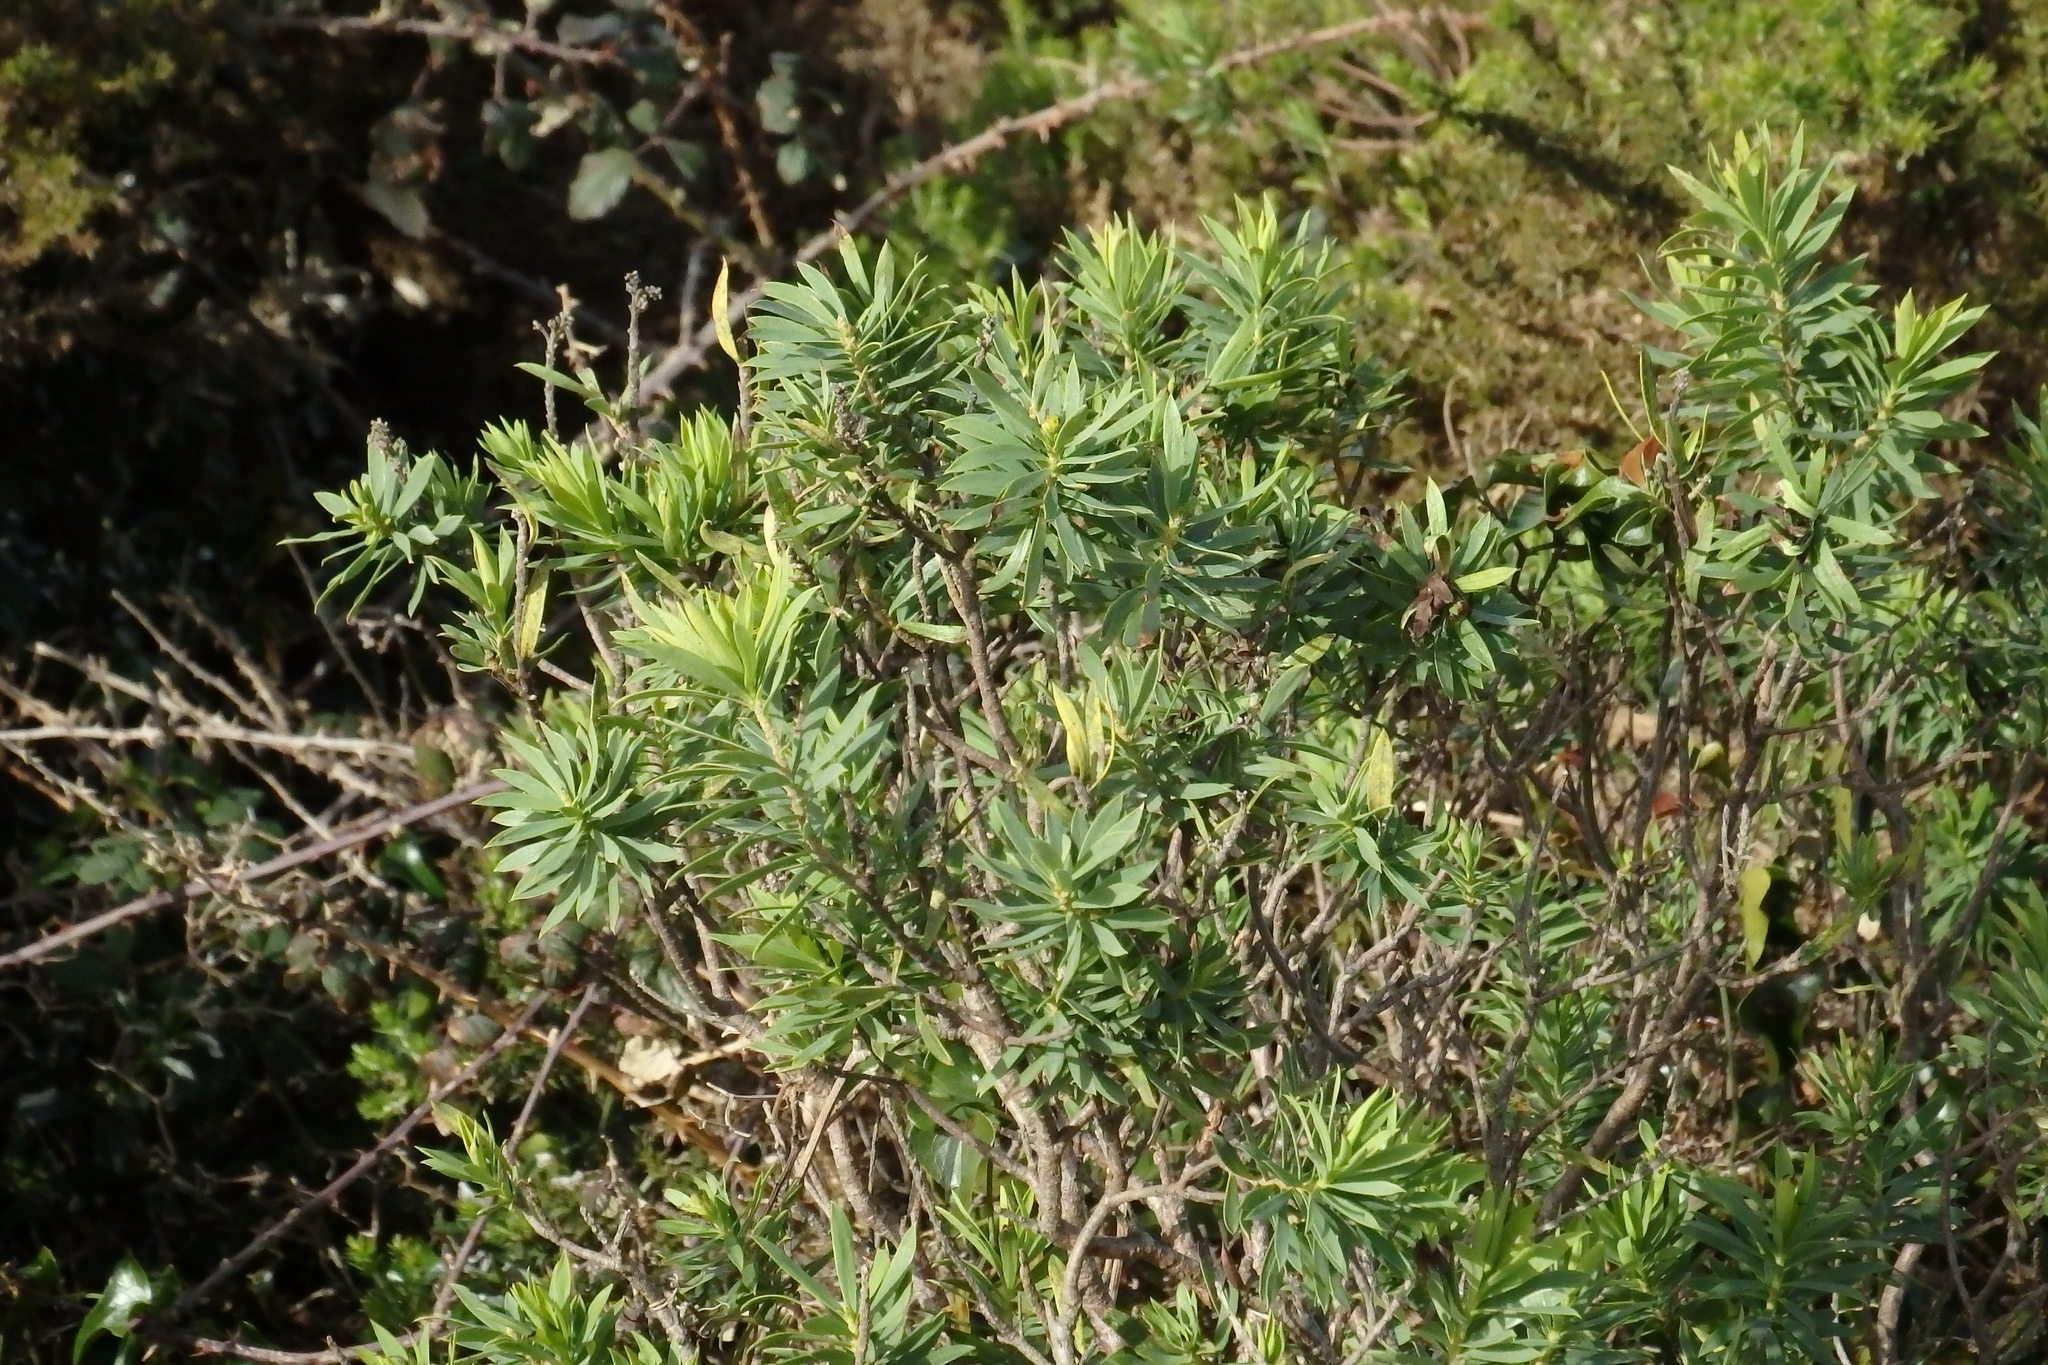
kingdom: Plantae
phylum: Tracheophyta
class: Magnoliopsida
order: Malvales
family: Thymelaeaceae
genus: Daphne
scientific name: Daphne gnidium
